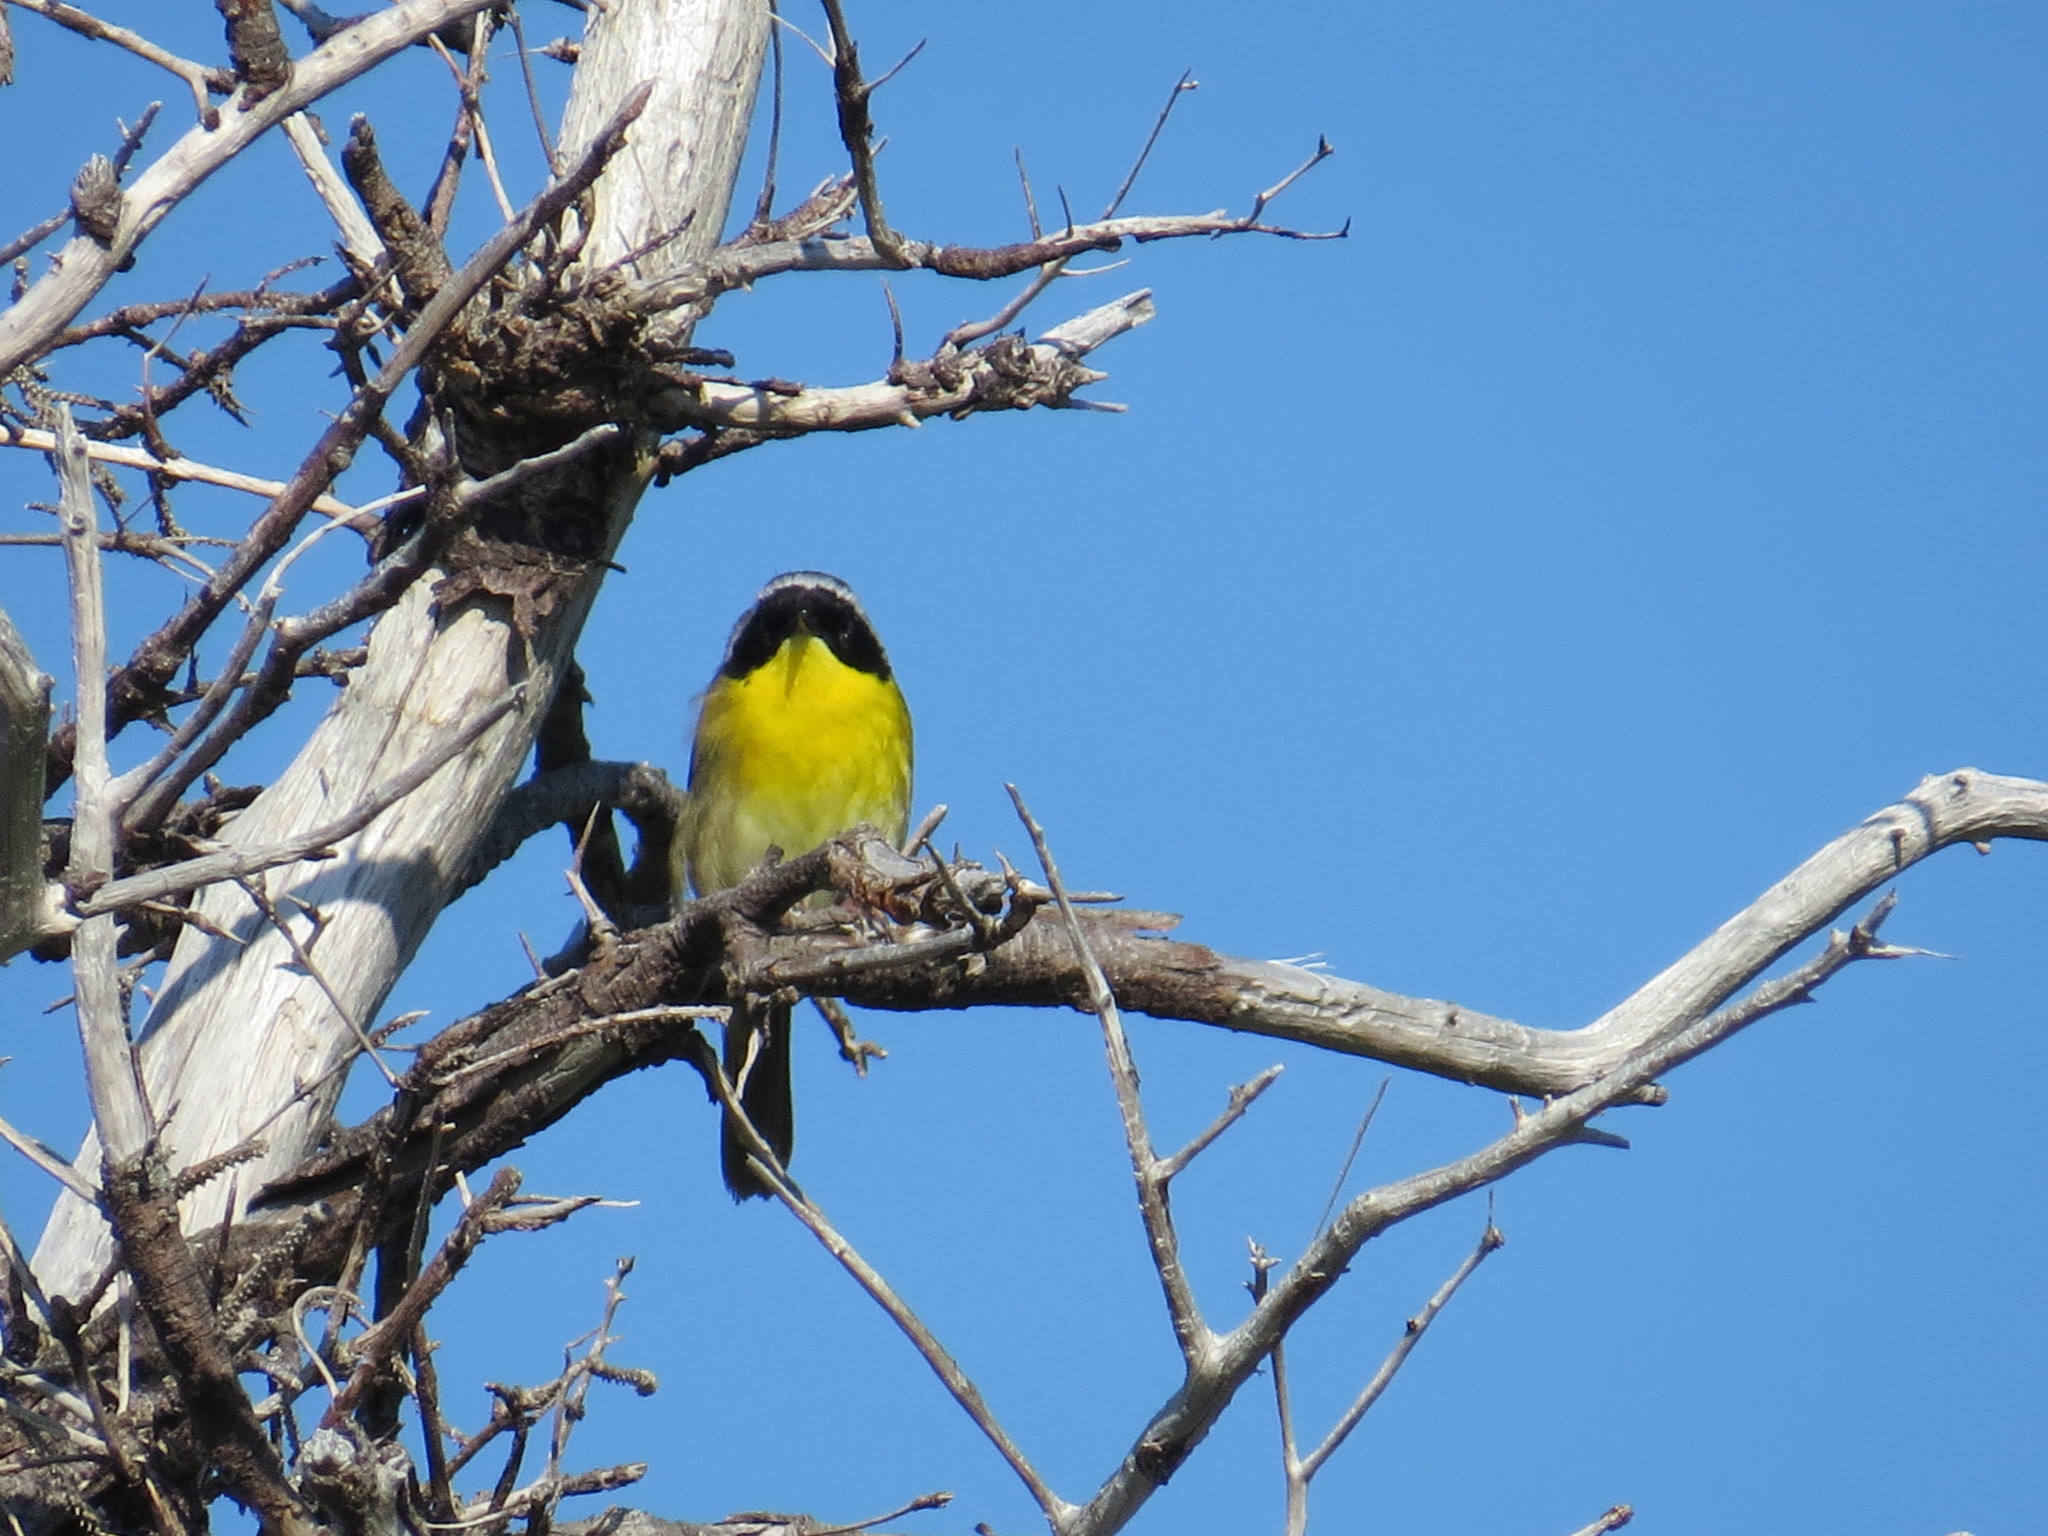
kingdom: Animalia
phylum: Chordata
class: Aves
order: Passeriformes
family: Parulidae
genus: Geothlypis
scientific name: Geothlypis trichas
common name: Common yellowthroat
